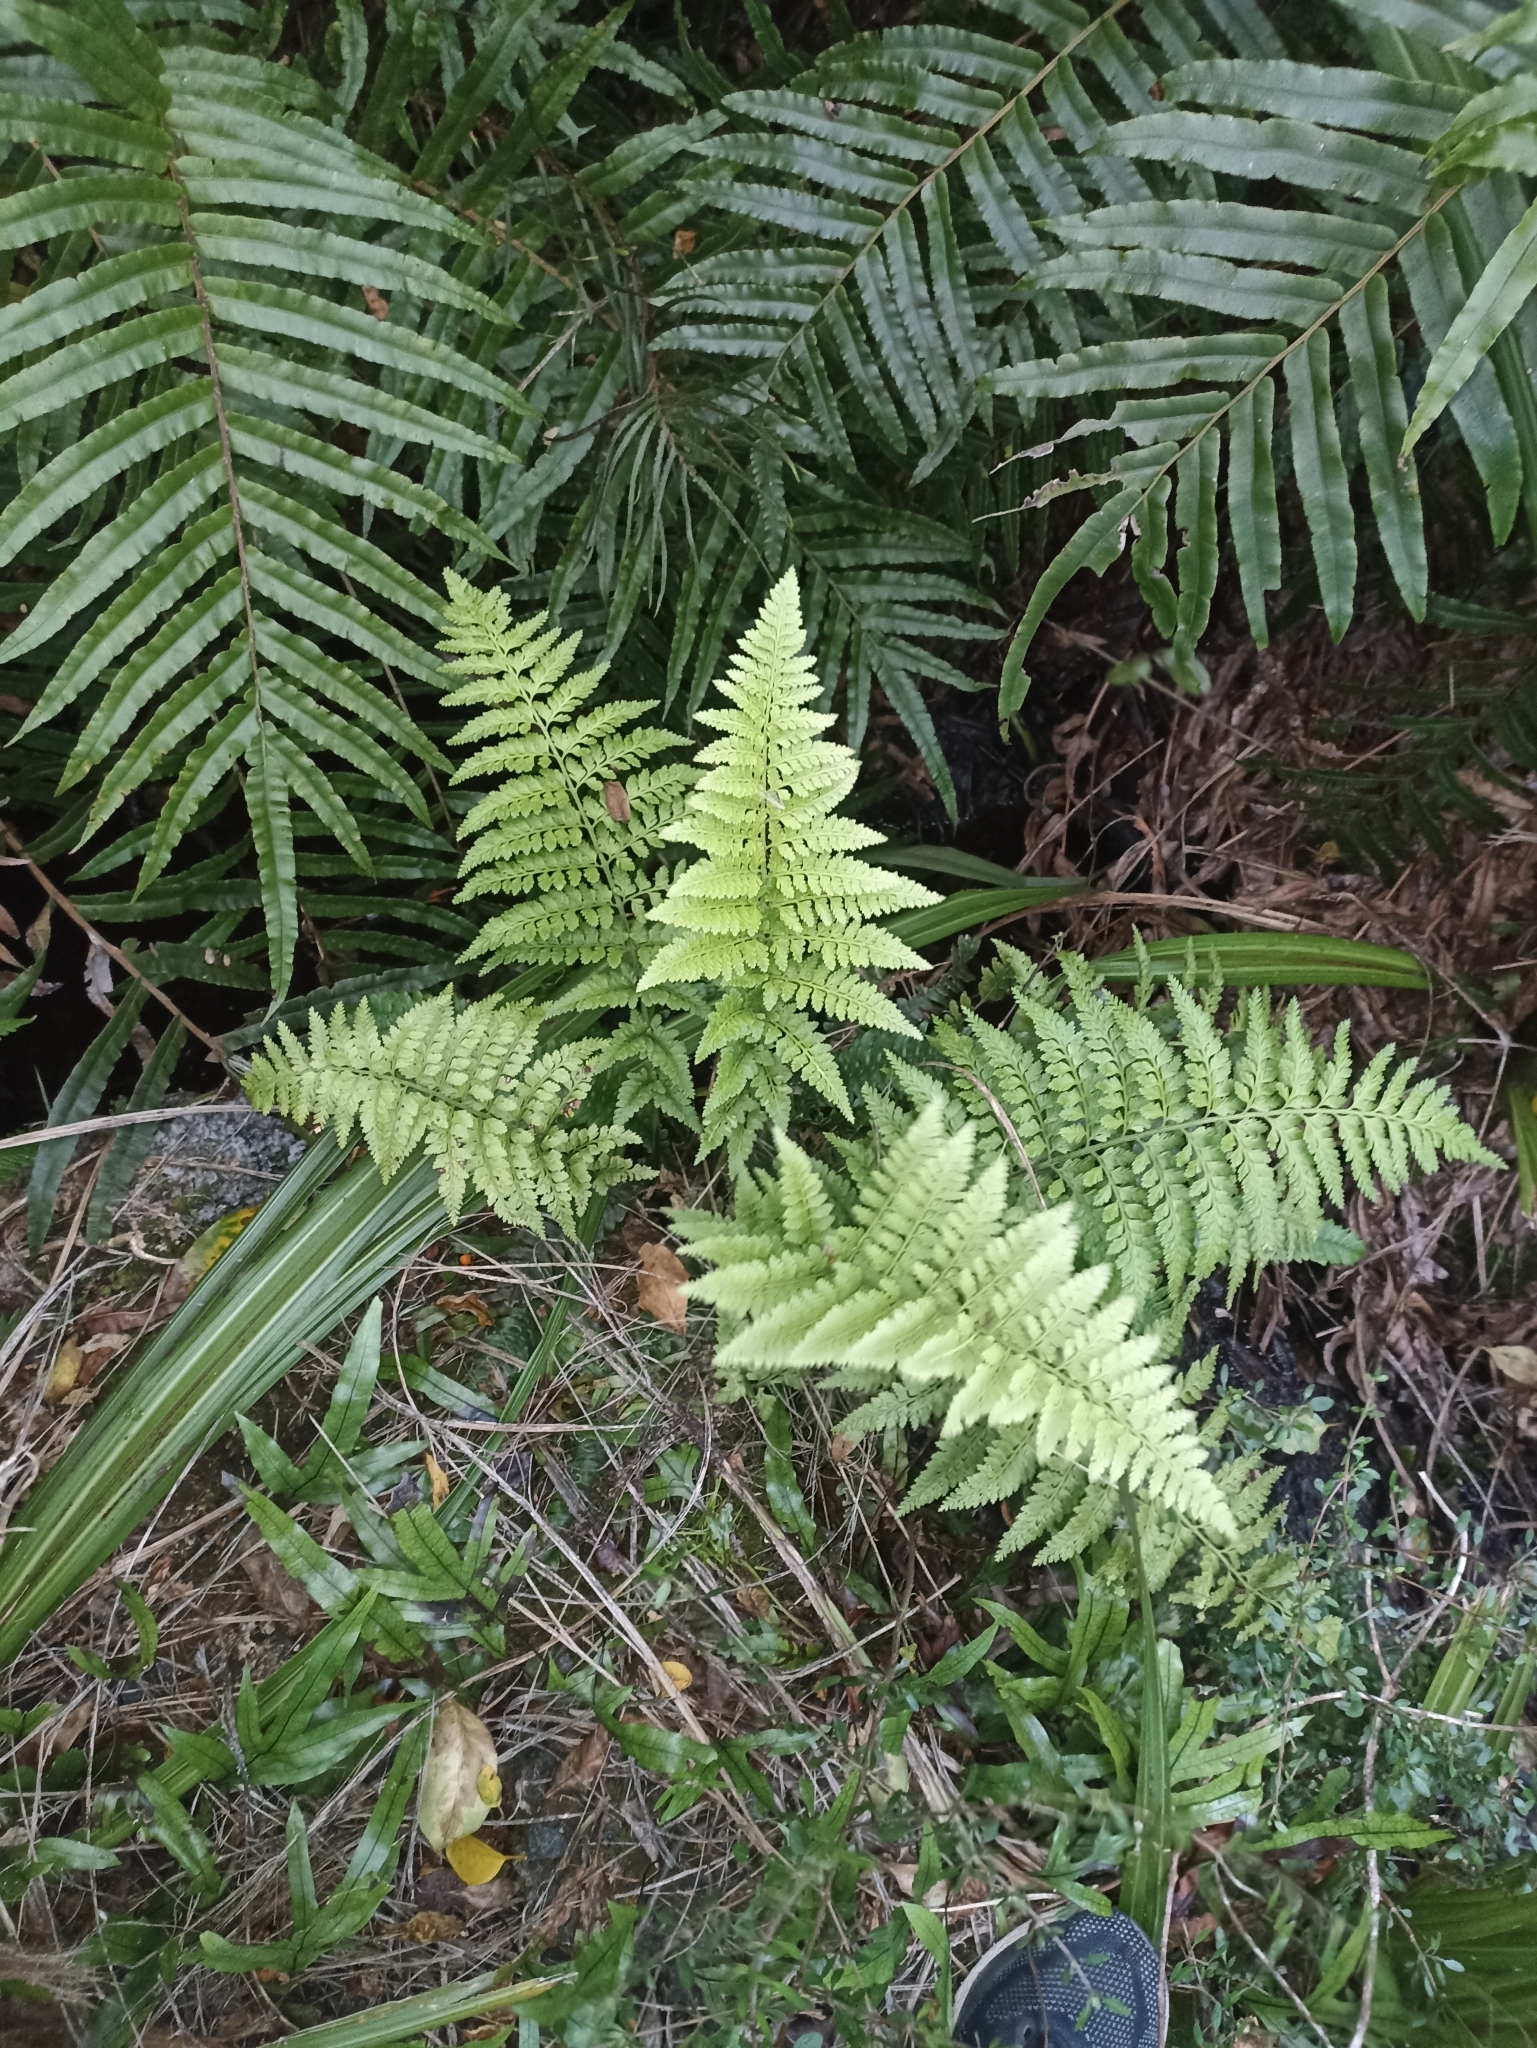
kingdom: Plantae
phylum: Tracheophyta
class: Polypodiopsida
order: Polypodiales
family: Aspleniaceae
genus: Asplenium
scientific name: Asplenium
